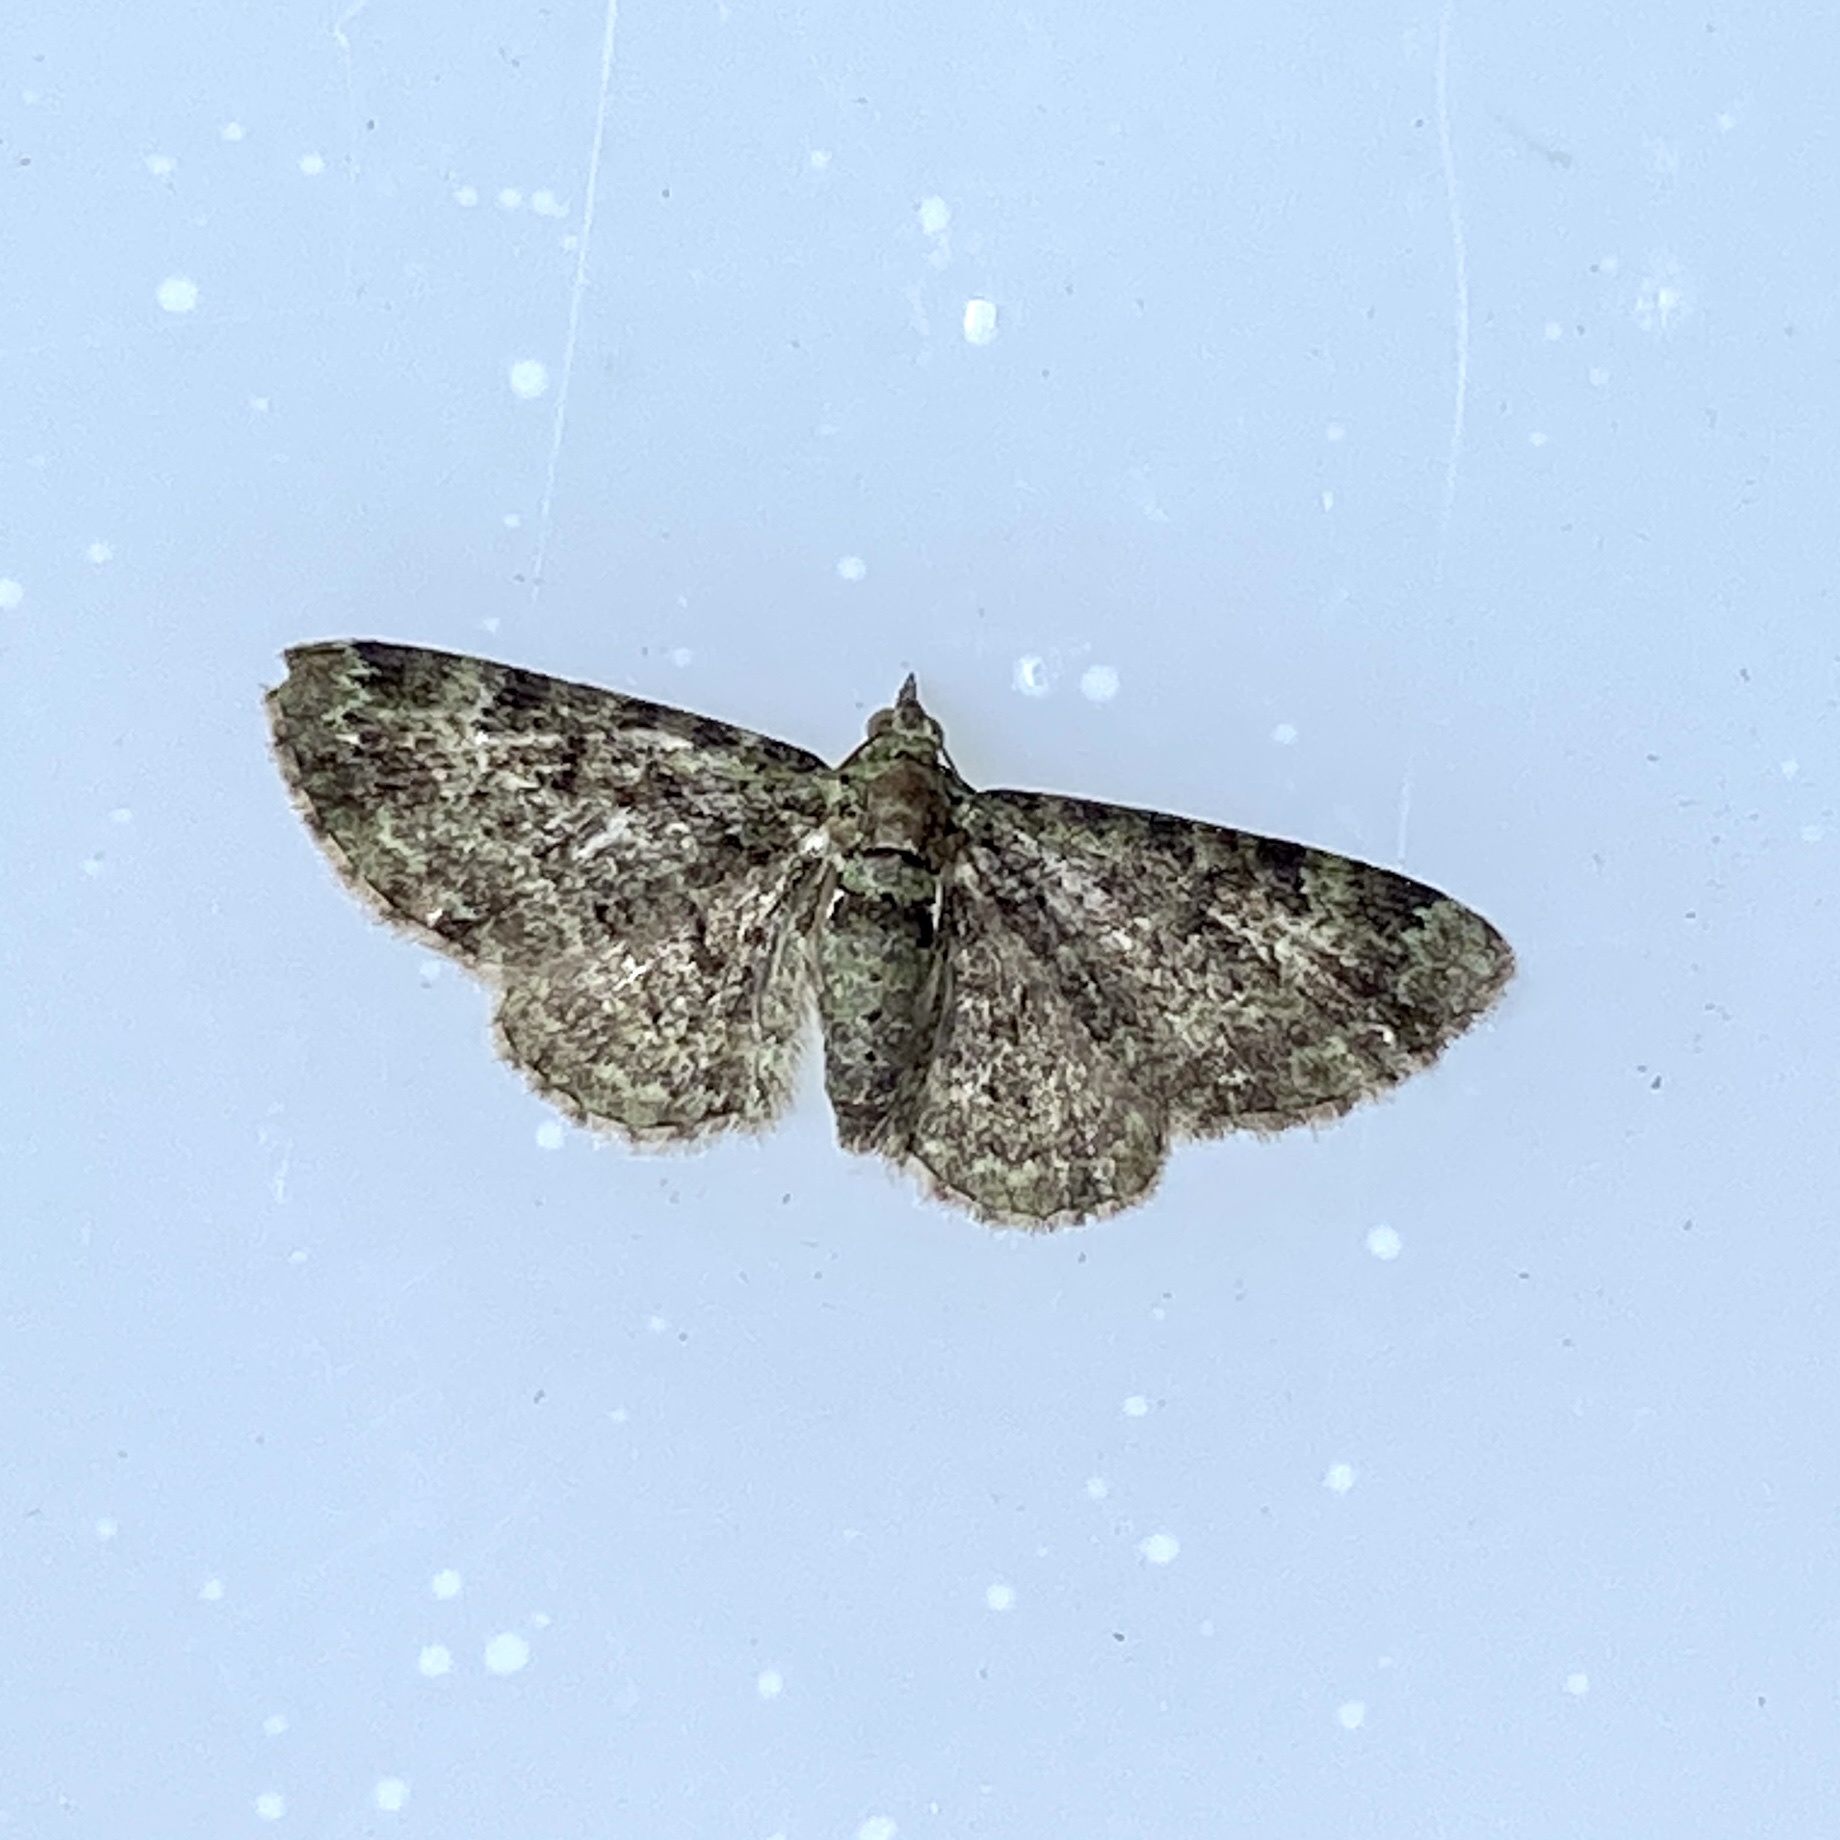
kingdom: Animalia
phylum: Arthropoda
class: Insecta
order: Lepidoptera
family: Geometridae
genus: Pasiphila
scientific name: Pasiphila rectangulata
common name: Green pug
